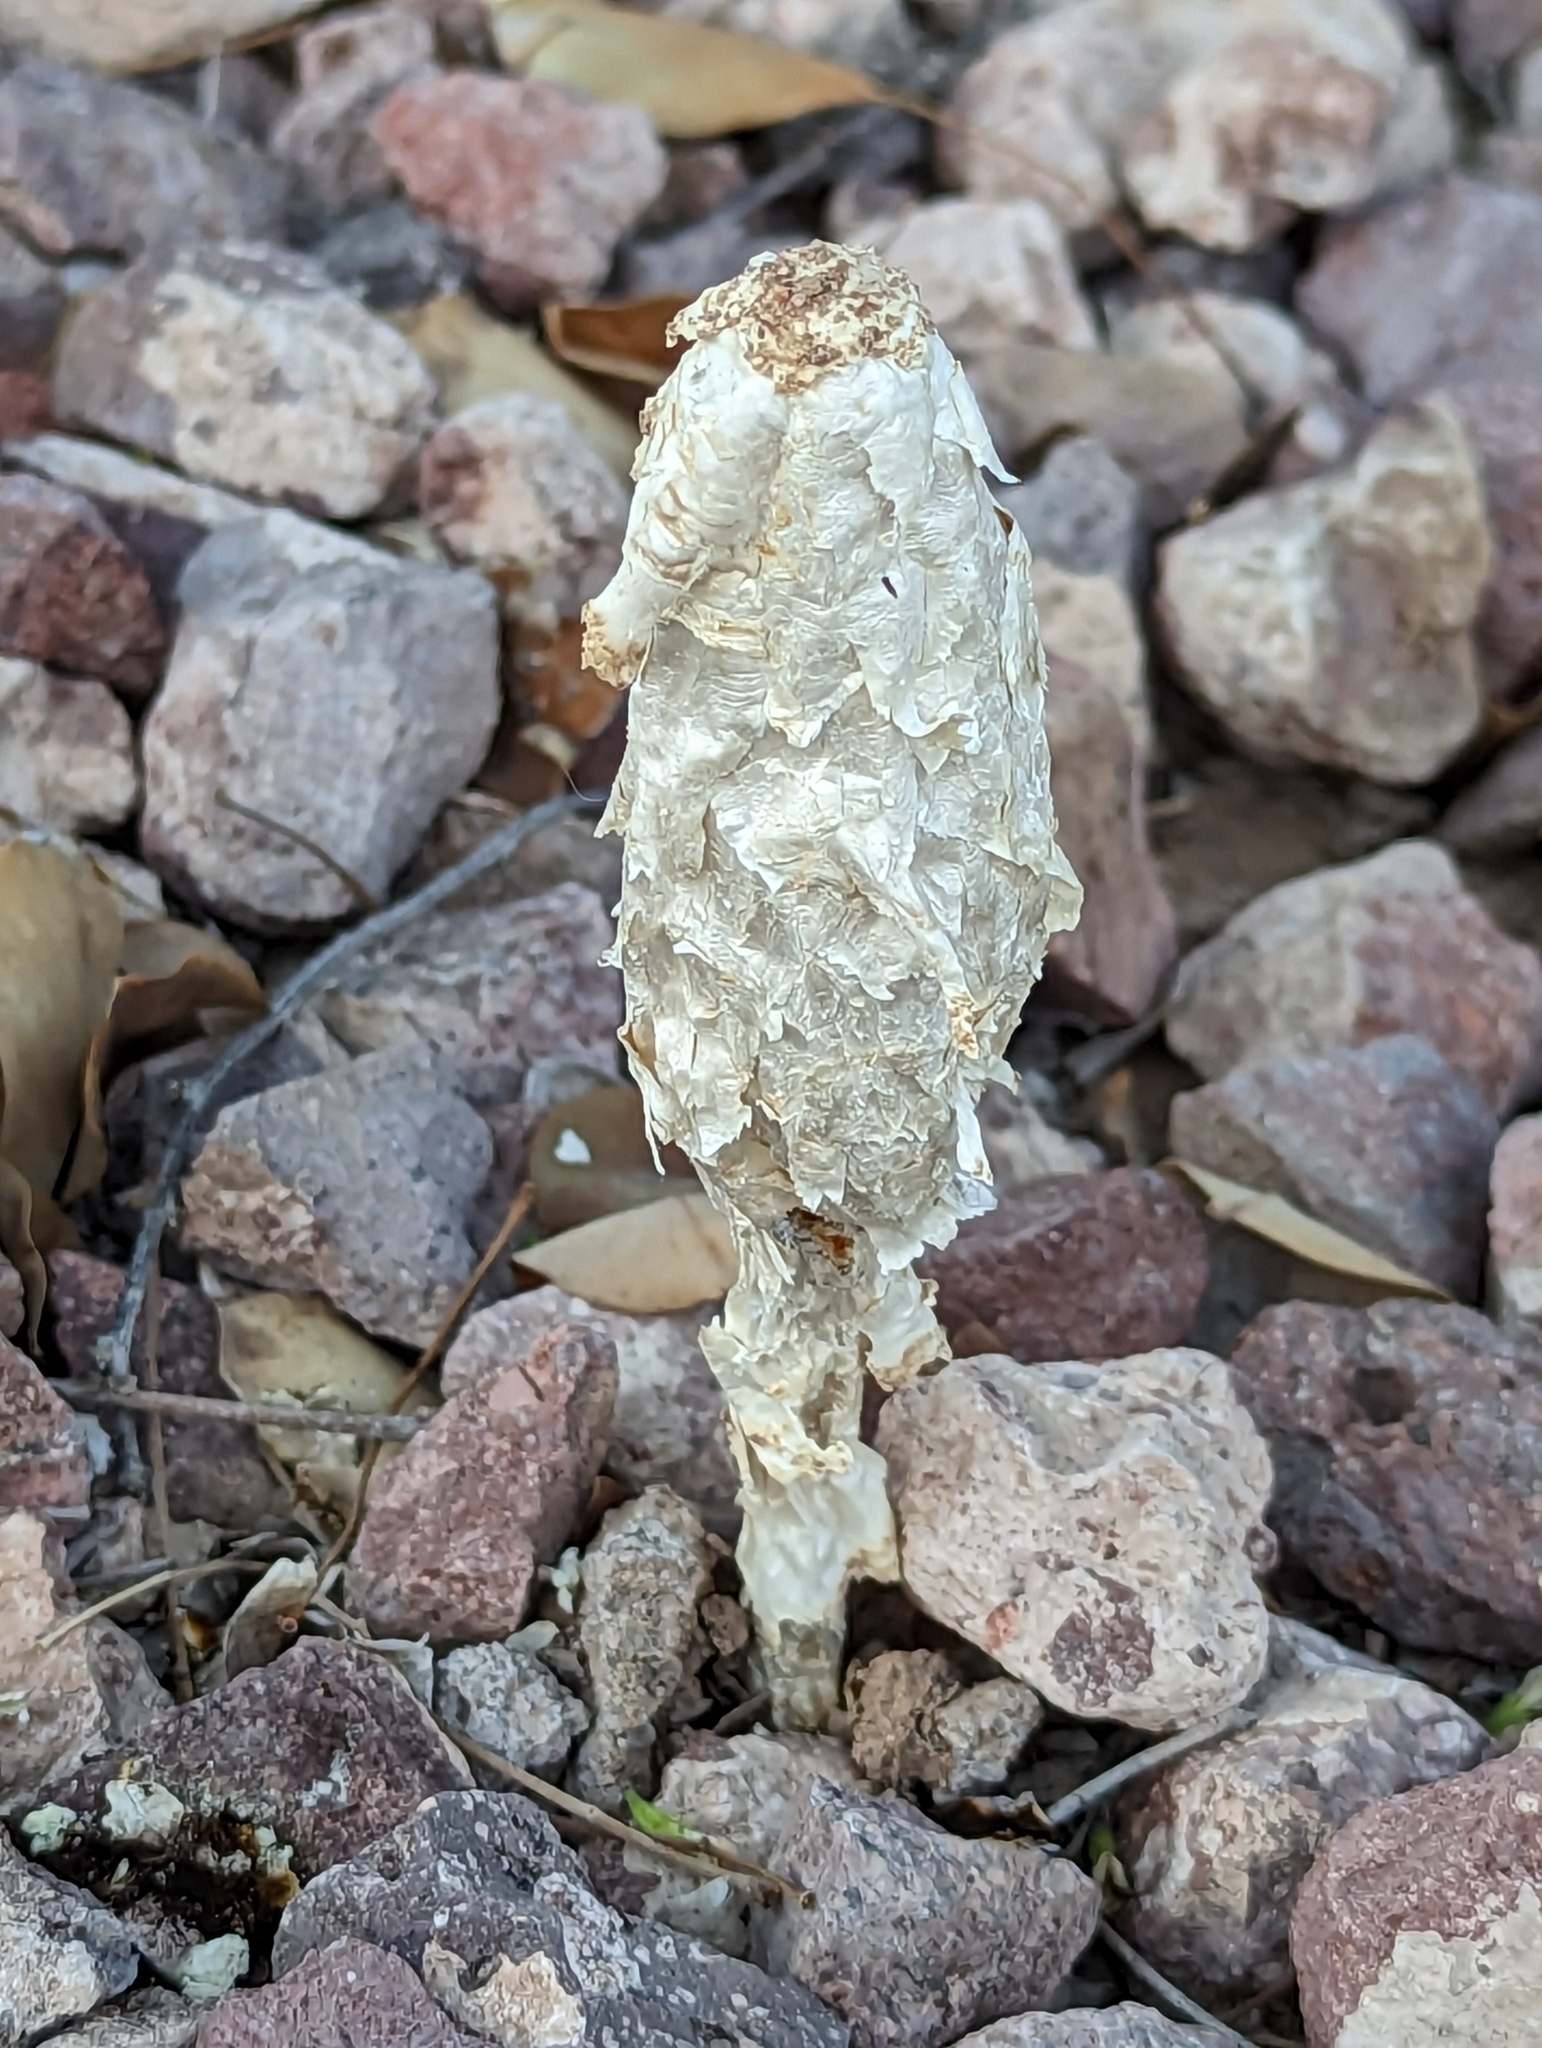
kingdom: Fungi
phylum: Basidiomycota
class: Agaricomycetes
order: Agaricales
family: Agaricaceae
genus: Podaxis
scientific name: Podaxis pistillaris
